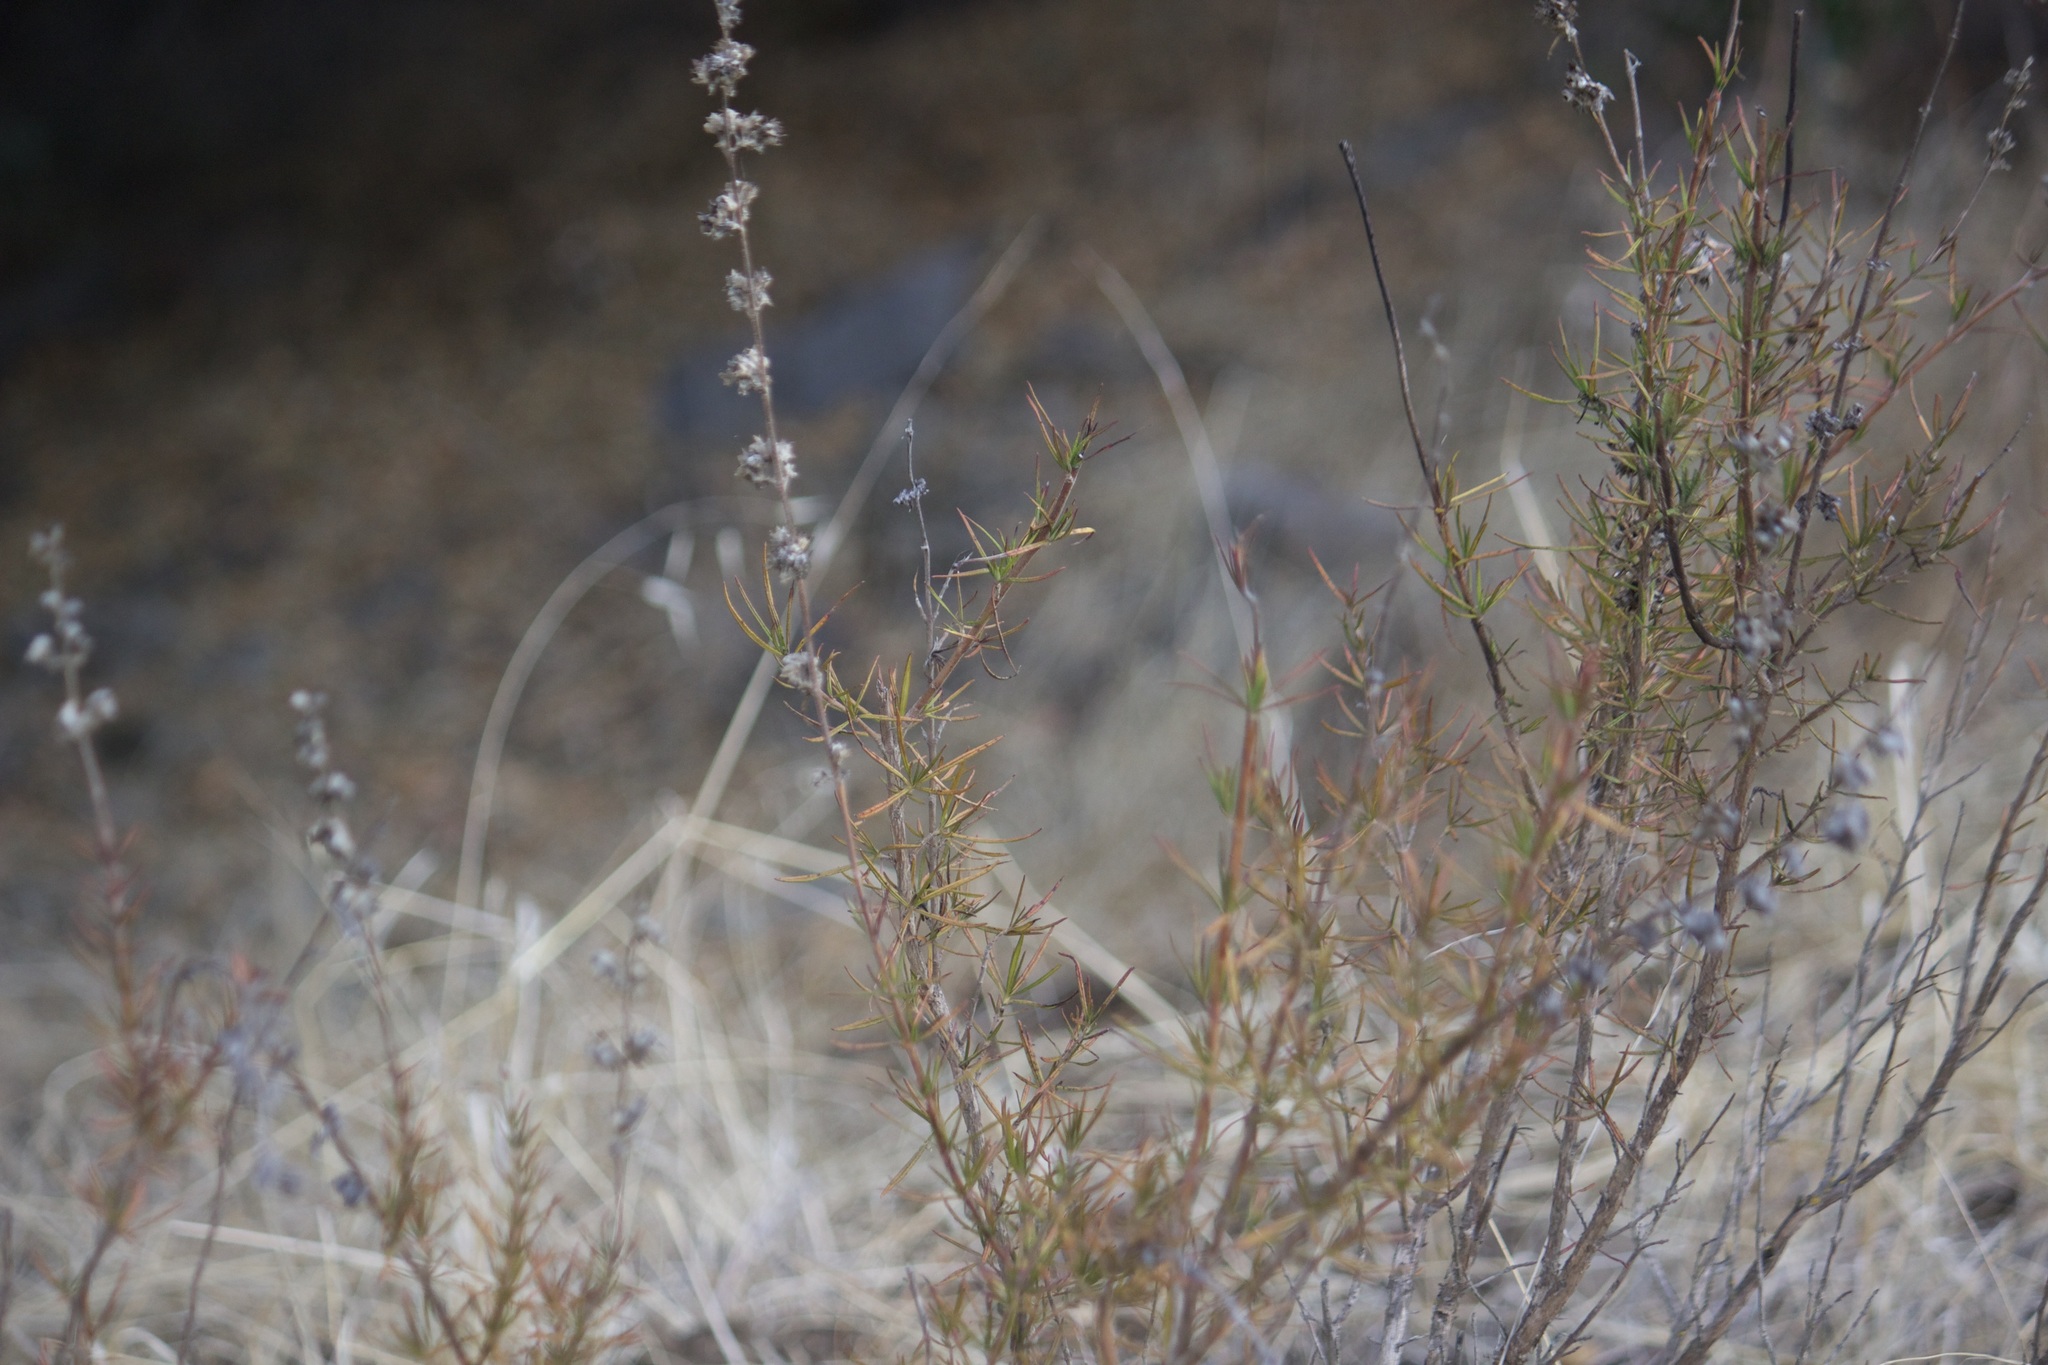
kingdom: Plantae
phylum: Tracheophyta
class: Magnoliopsida
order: Lamiales
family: Lamiaceae
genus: Trichostema
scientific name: Trichostema lanatum
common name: Woolly bluecurls
